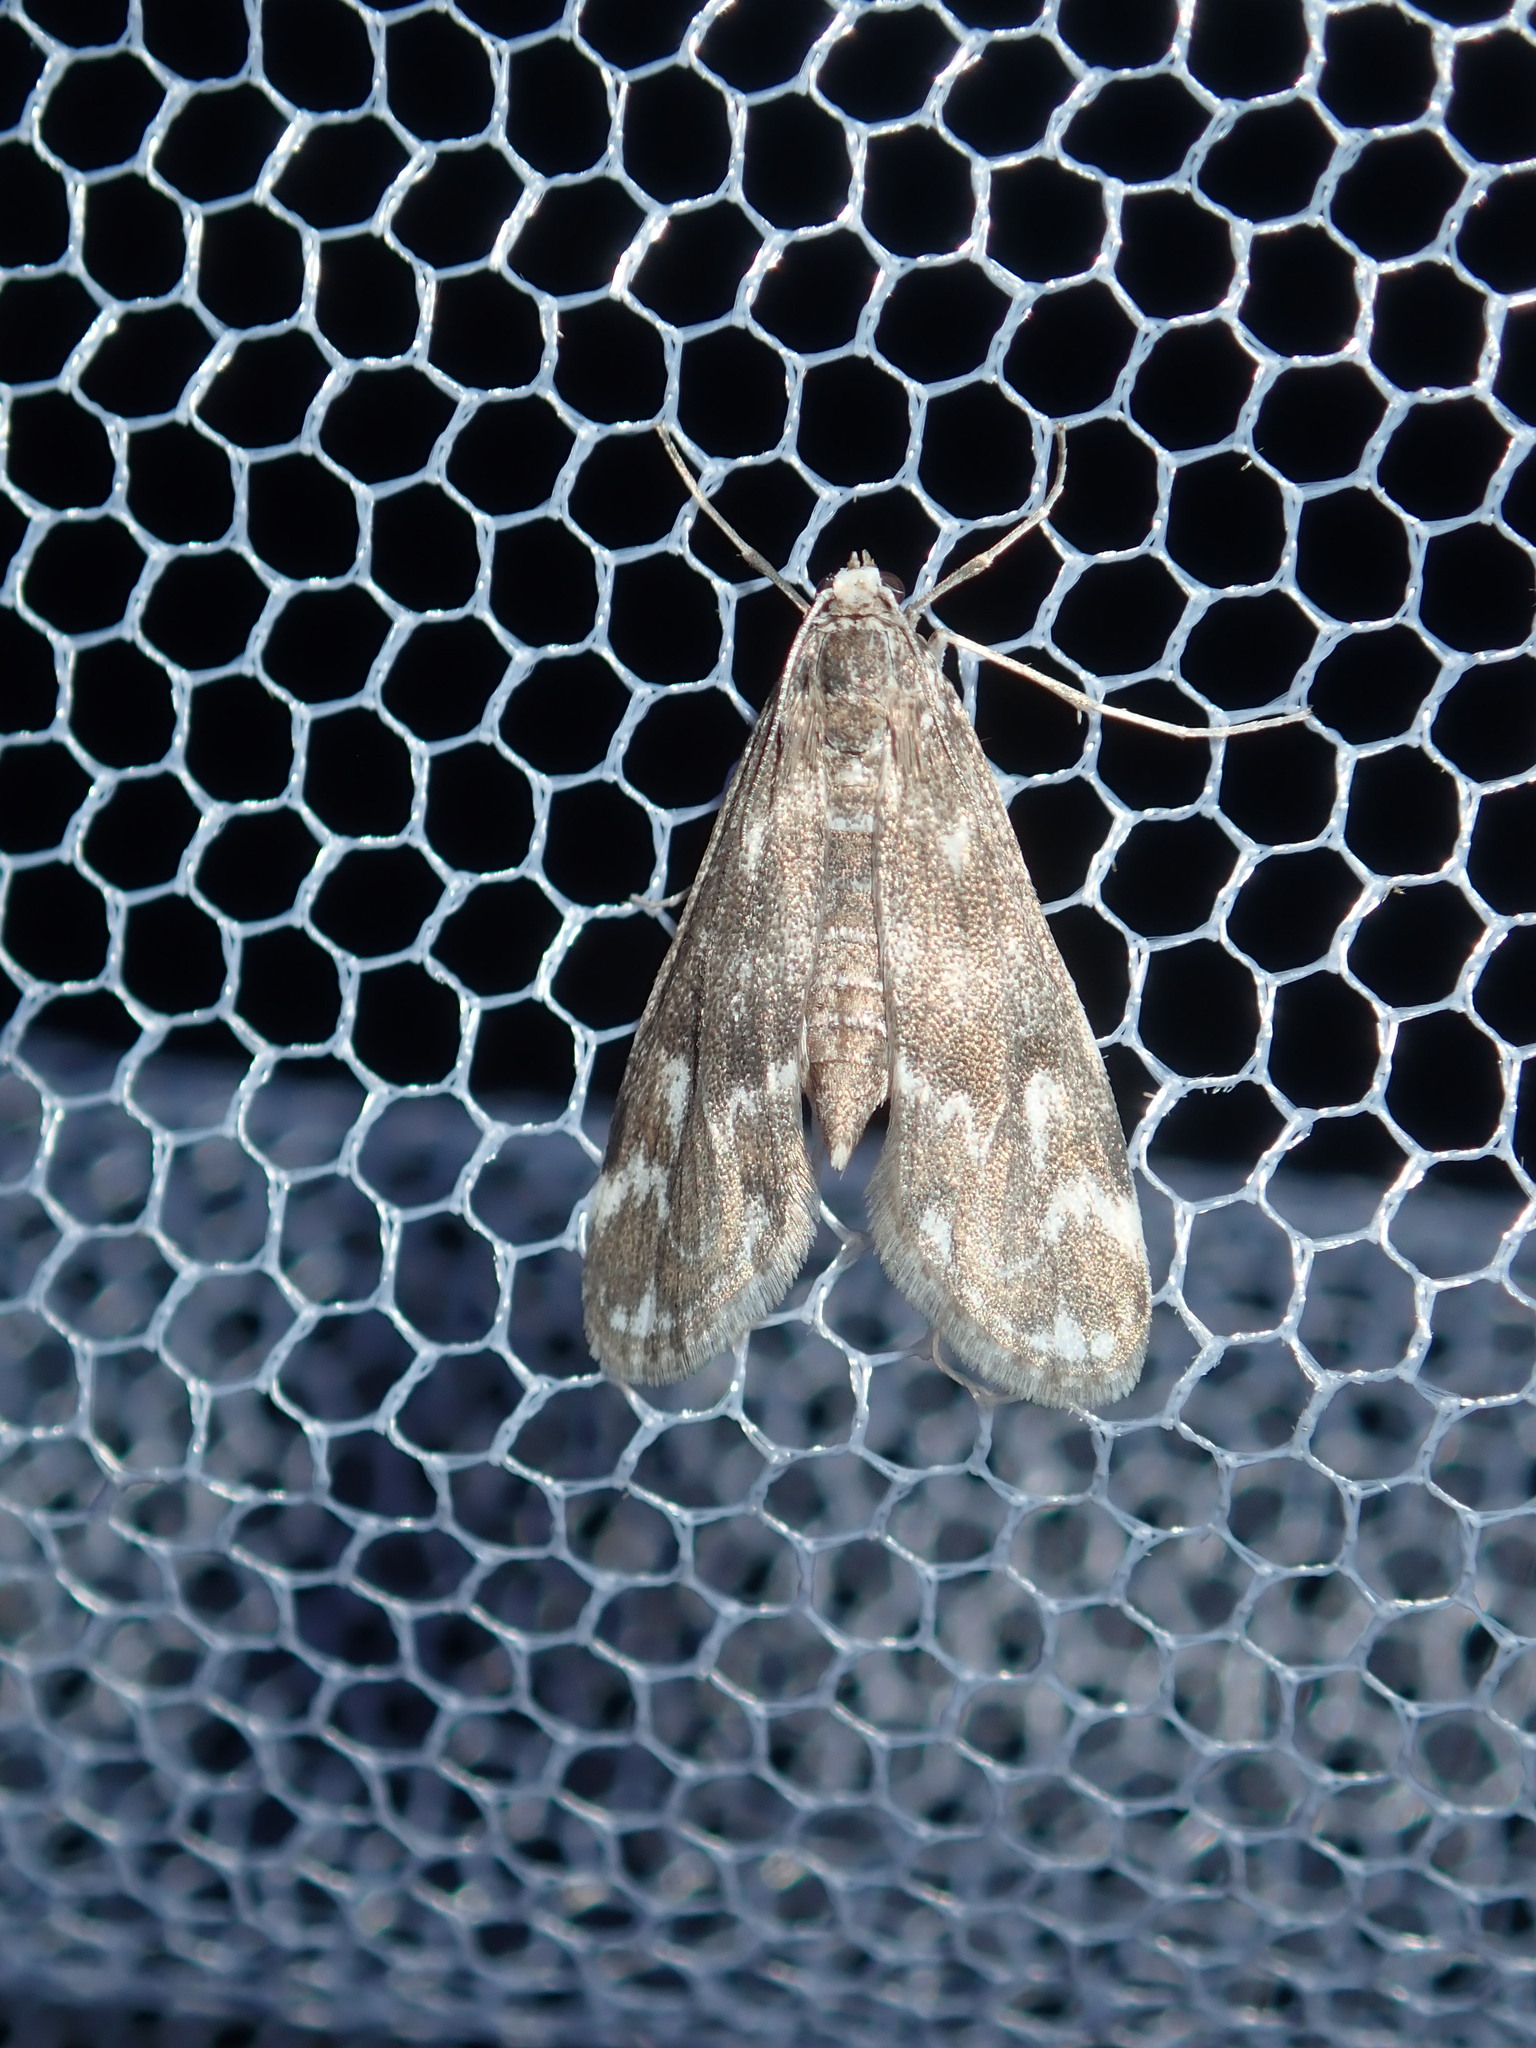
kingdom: Animalia
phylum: Arthropoda
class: Insecta
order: Lepidoptera
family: Crambidae
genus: Hygraula
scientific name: Hygraula nitens
